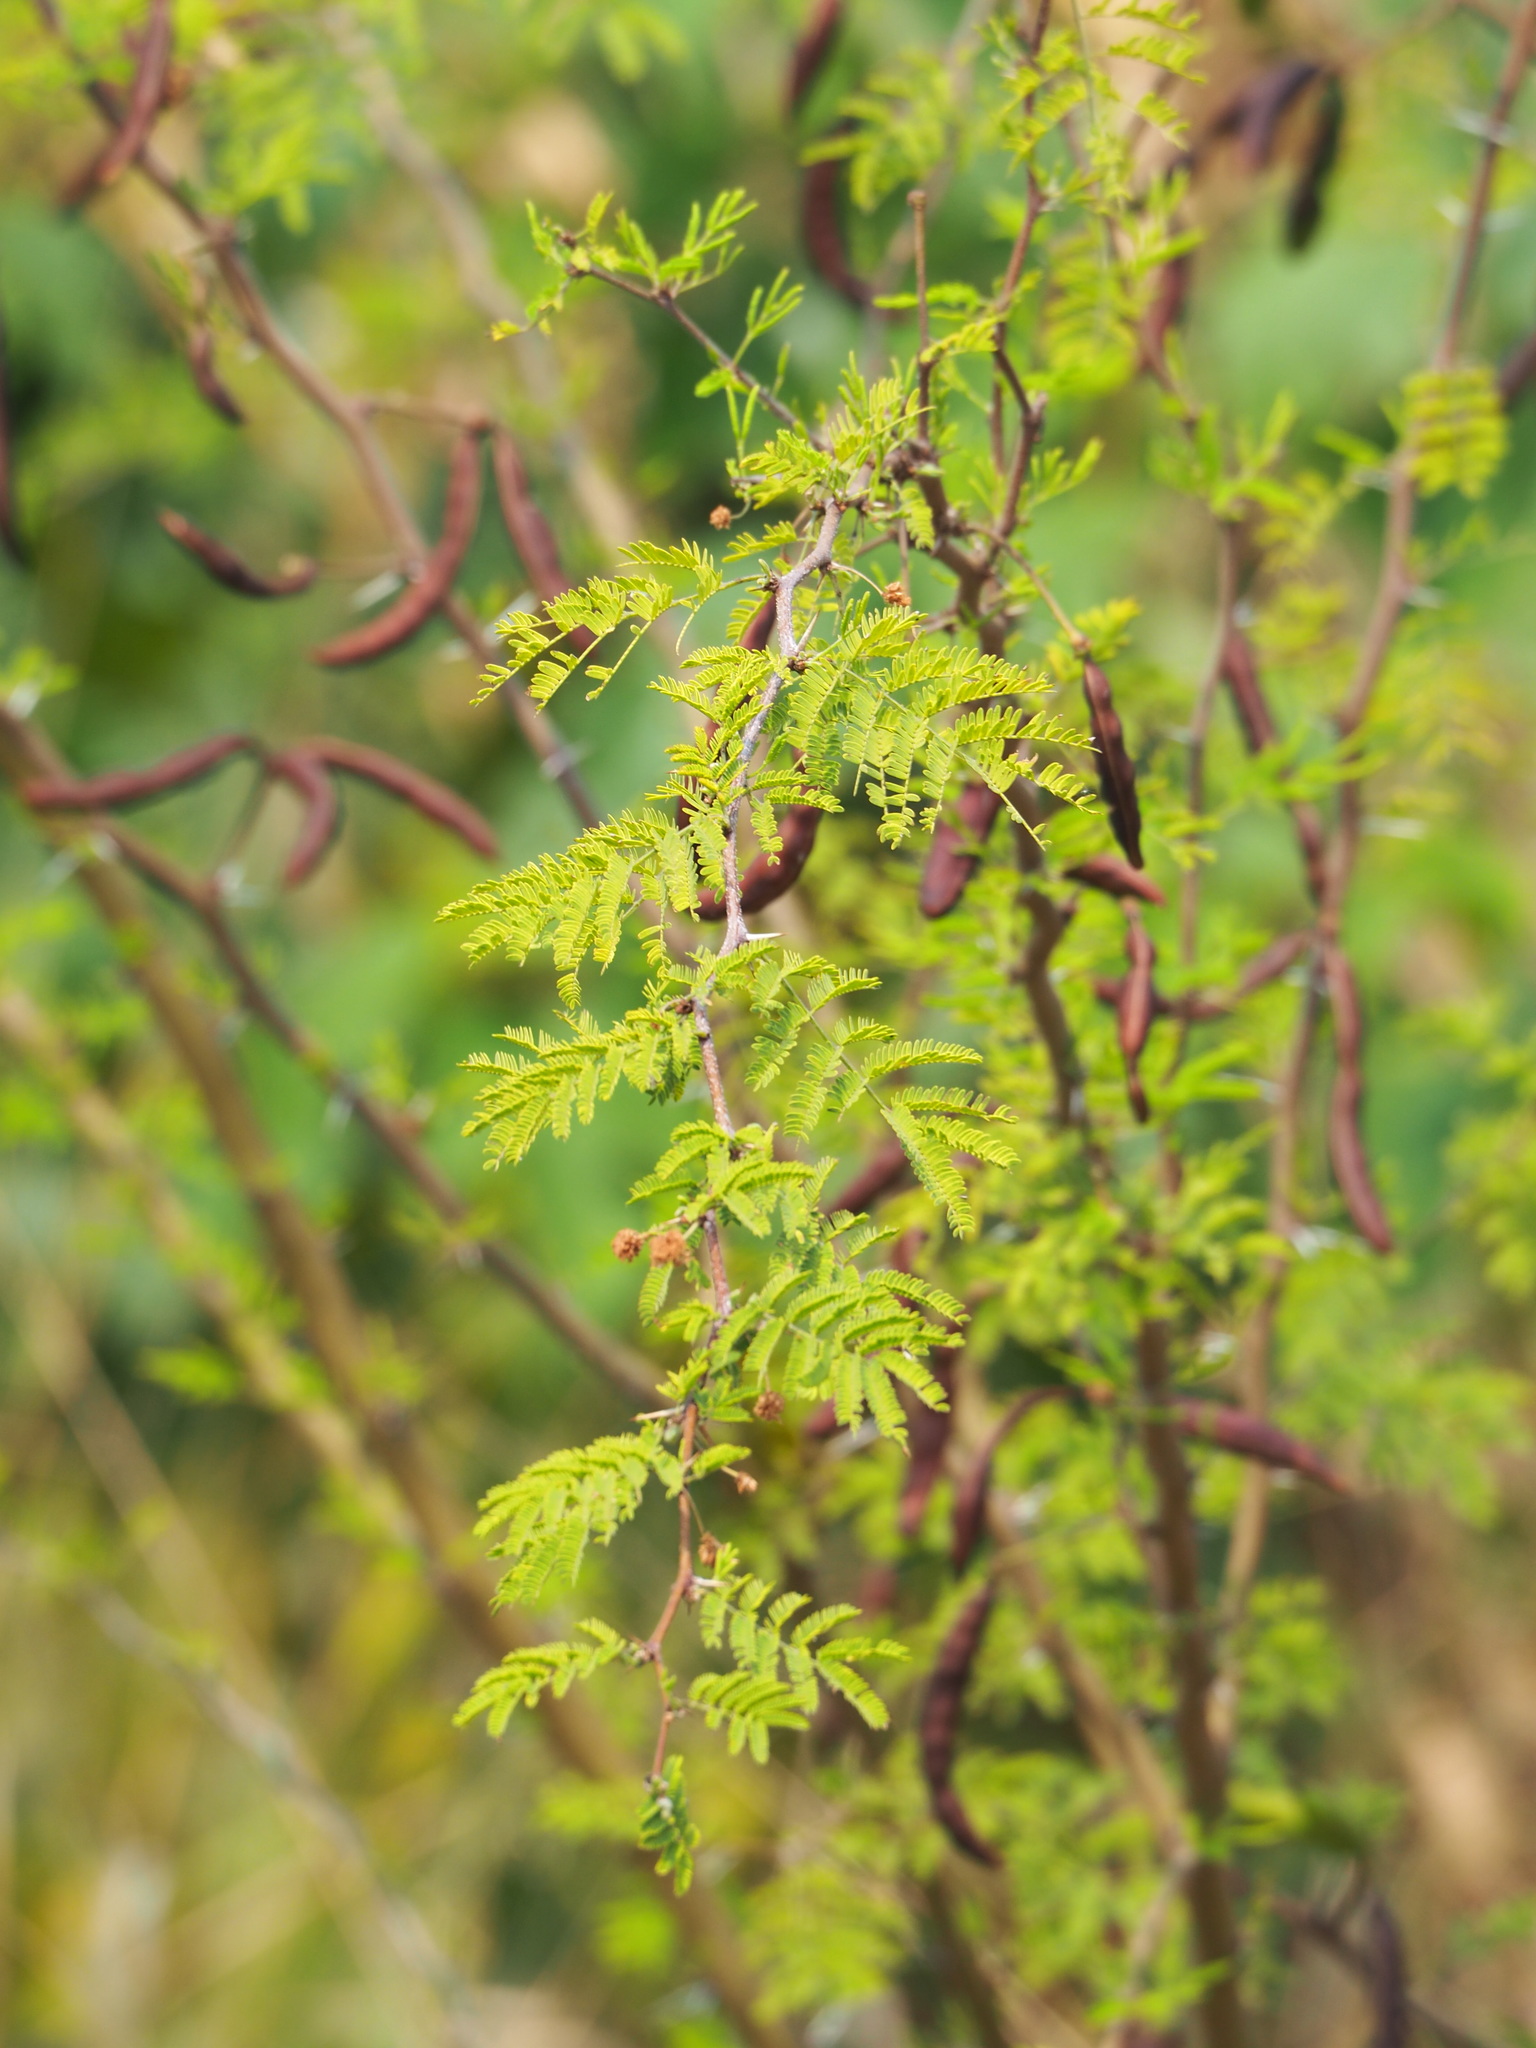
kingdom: Plantae
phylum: Tracheophyta
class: Magnoliopsida
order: Fabales
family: Fabaceae
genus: Vachellia
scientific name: Vachellia farnesiana
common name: Sweet acacia
